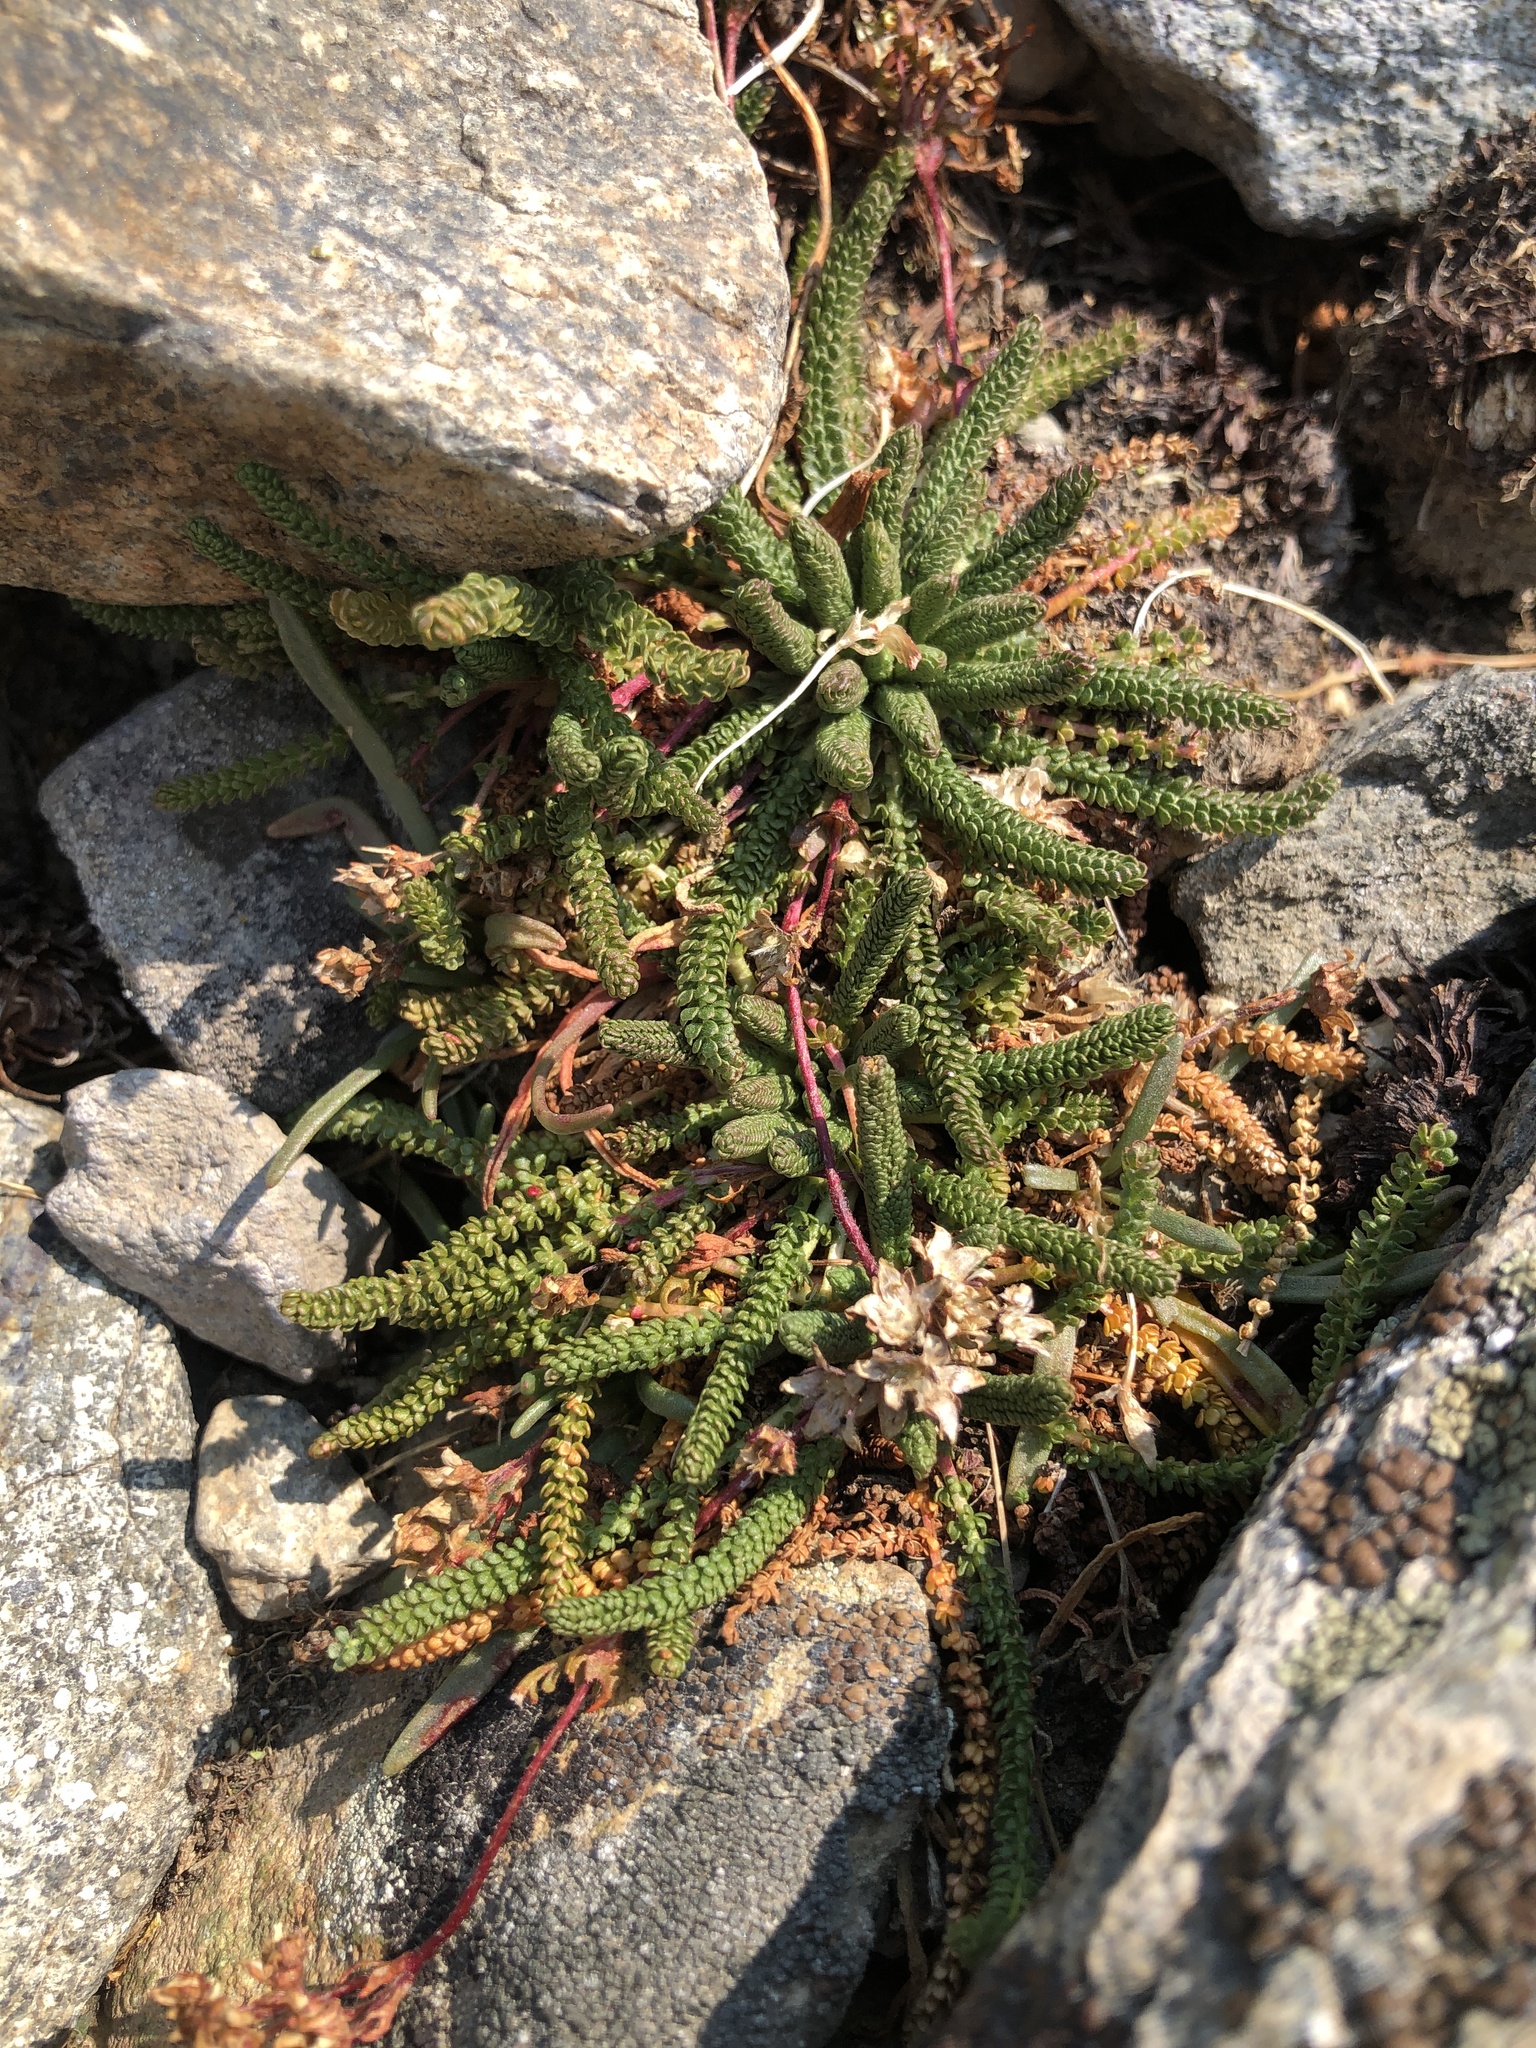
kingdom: Plantae
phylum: Tracheophyta
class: Magnoliopsida
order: Rosales
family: Rosaceae
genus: Potentilla
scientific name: Potentilla gordonii
